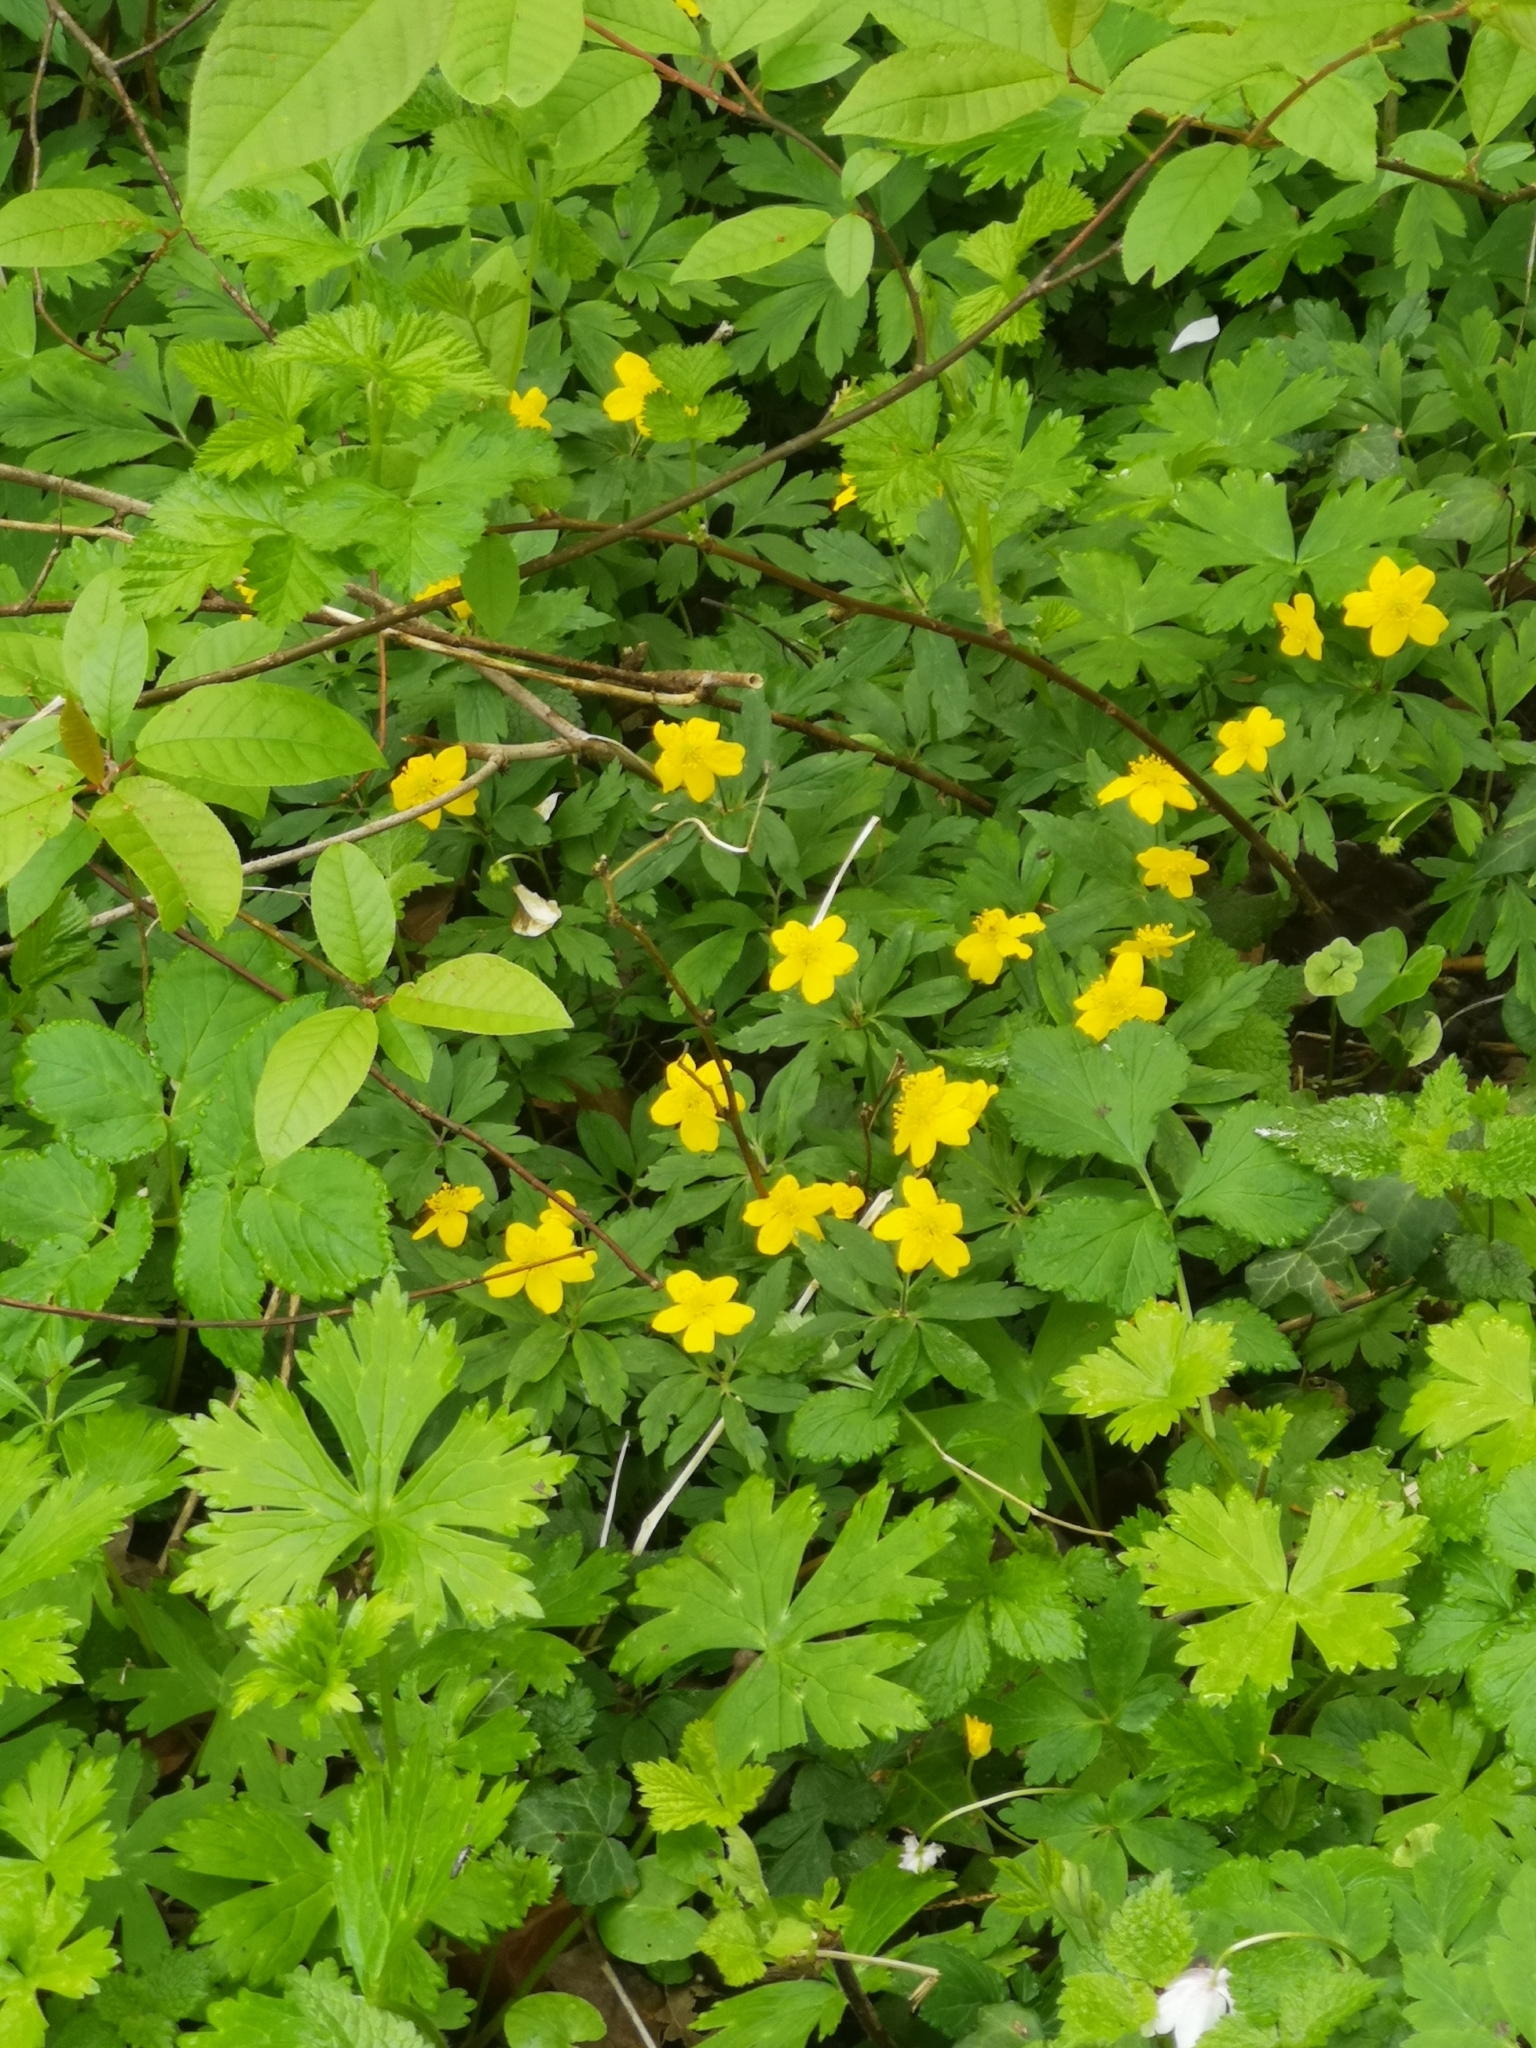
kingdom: Plantae
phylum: Tracheophyta
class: Magnoliopsida
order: Ranunculales
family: Ranunculaceae
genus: Anemone
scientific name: Anemone ranunculoides
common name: Yellow anemone
